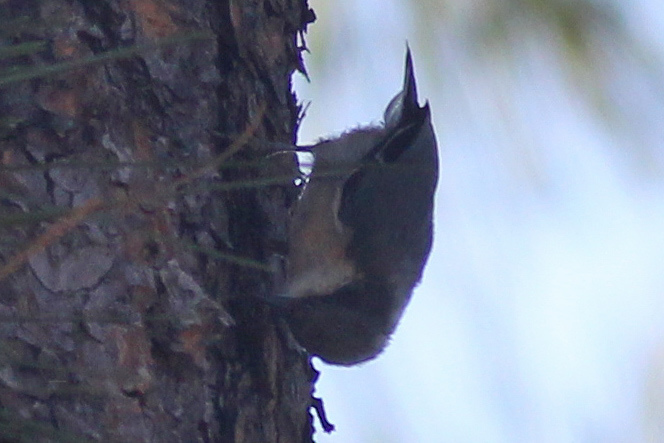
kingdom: Animalia
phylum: Chordata
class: Aves
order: Passeriformes
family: Sittidae
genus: Sitta
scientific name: Sitta pygmaea
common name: Pygmy nuthatch
